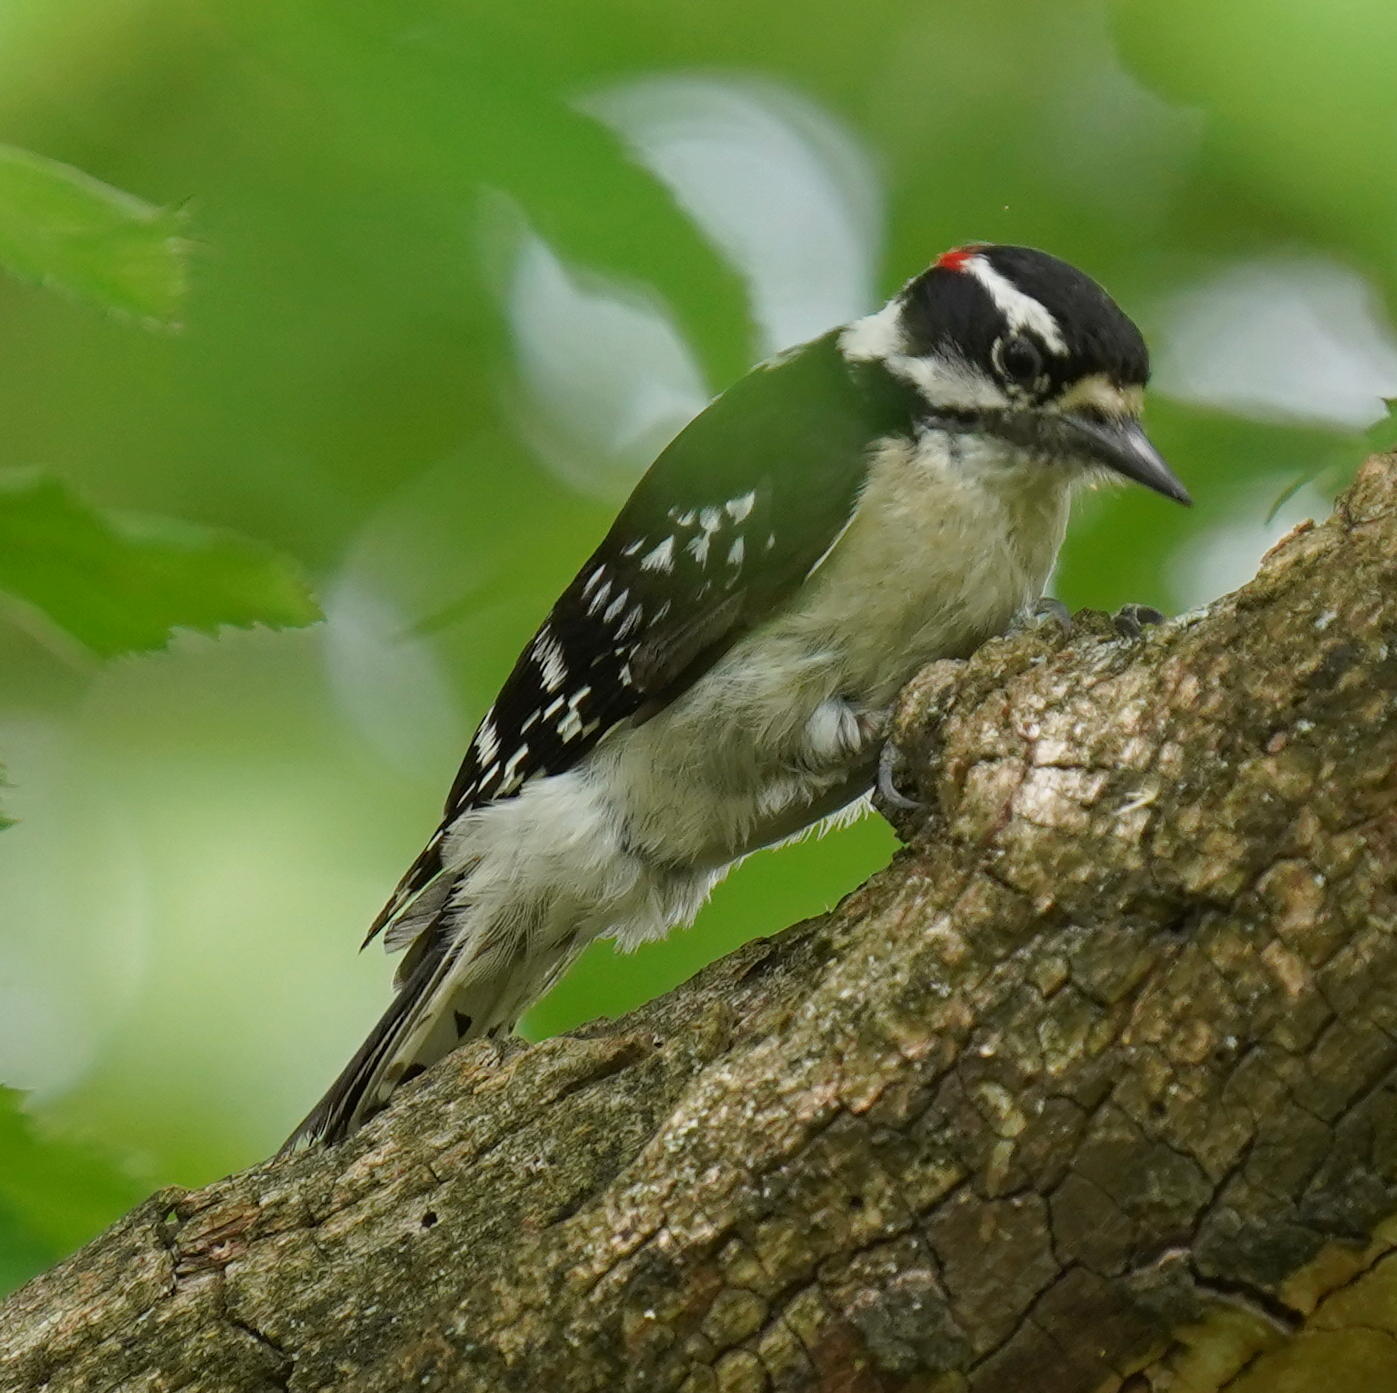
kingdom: Animalia
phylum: Chordata
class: Aves
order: Piciformes
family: Picidae
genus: Dryobates
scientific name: Dryobates pubescens
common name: Downy woodpecker
